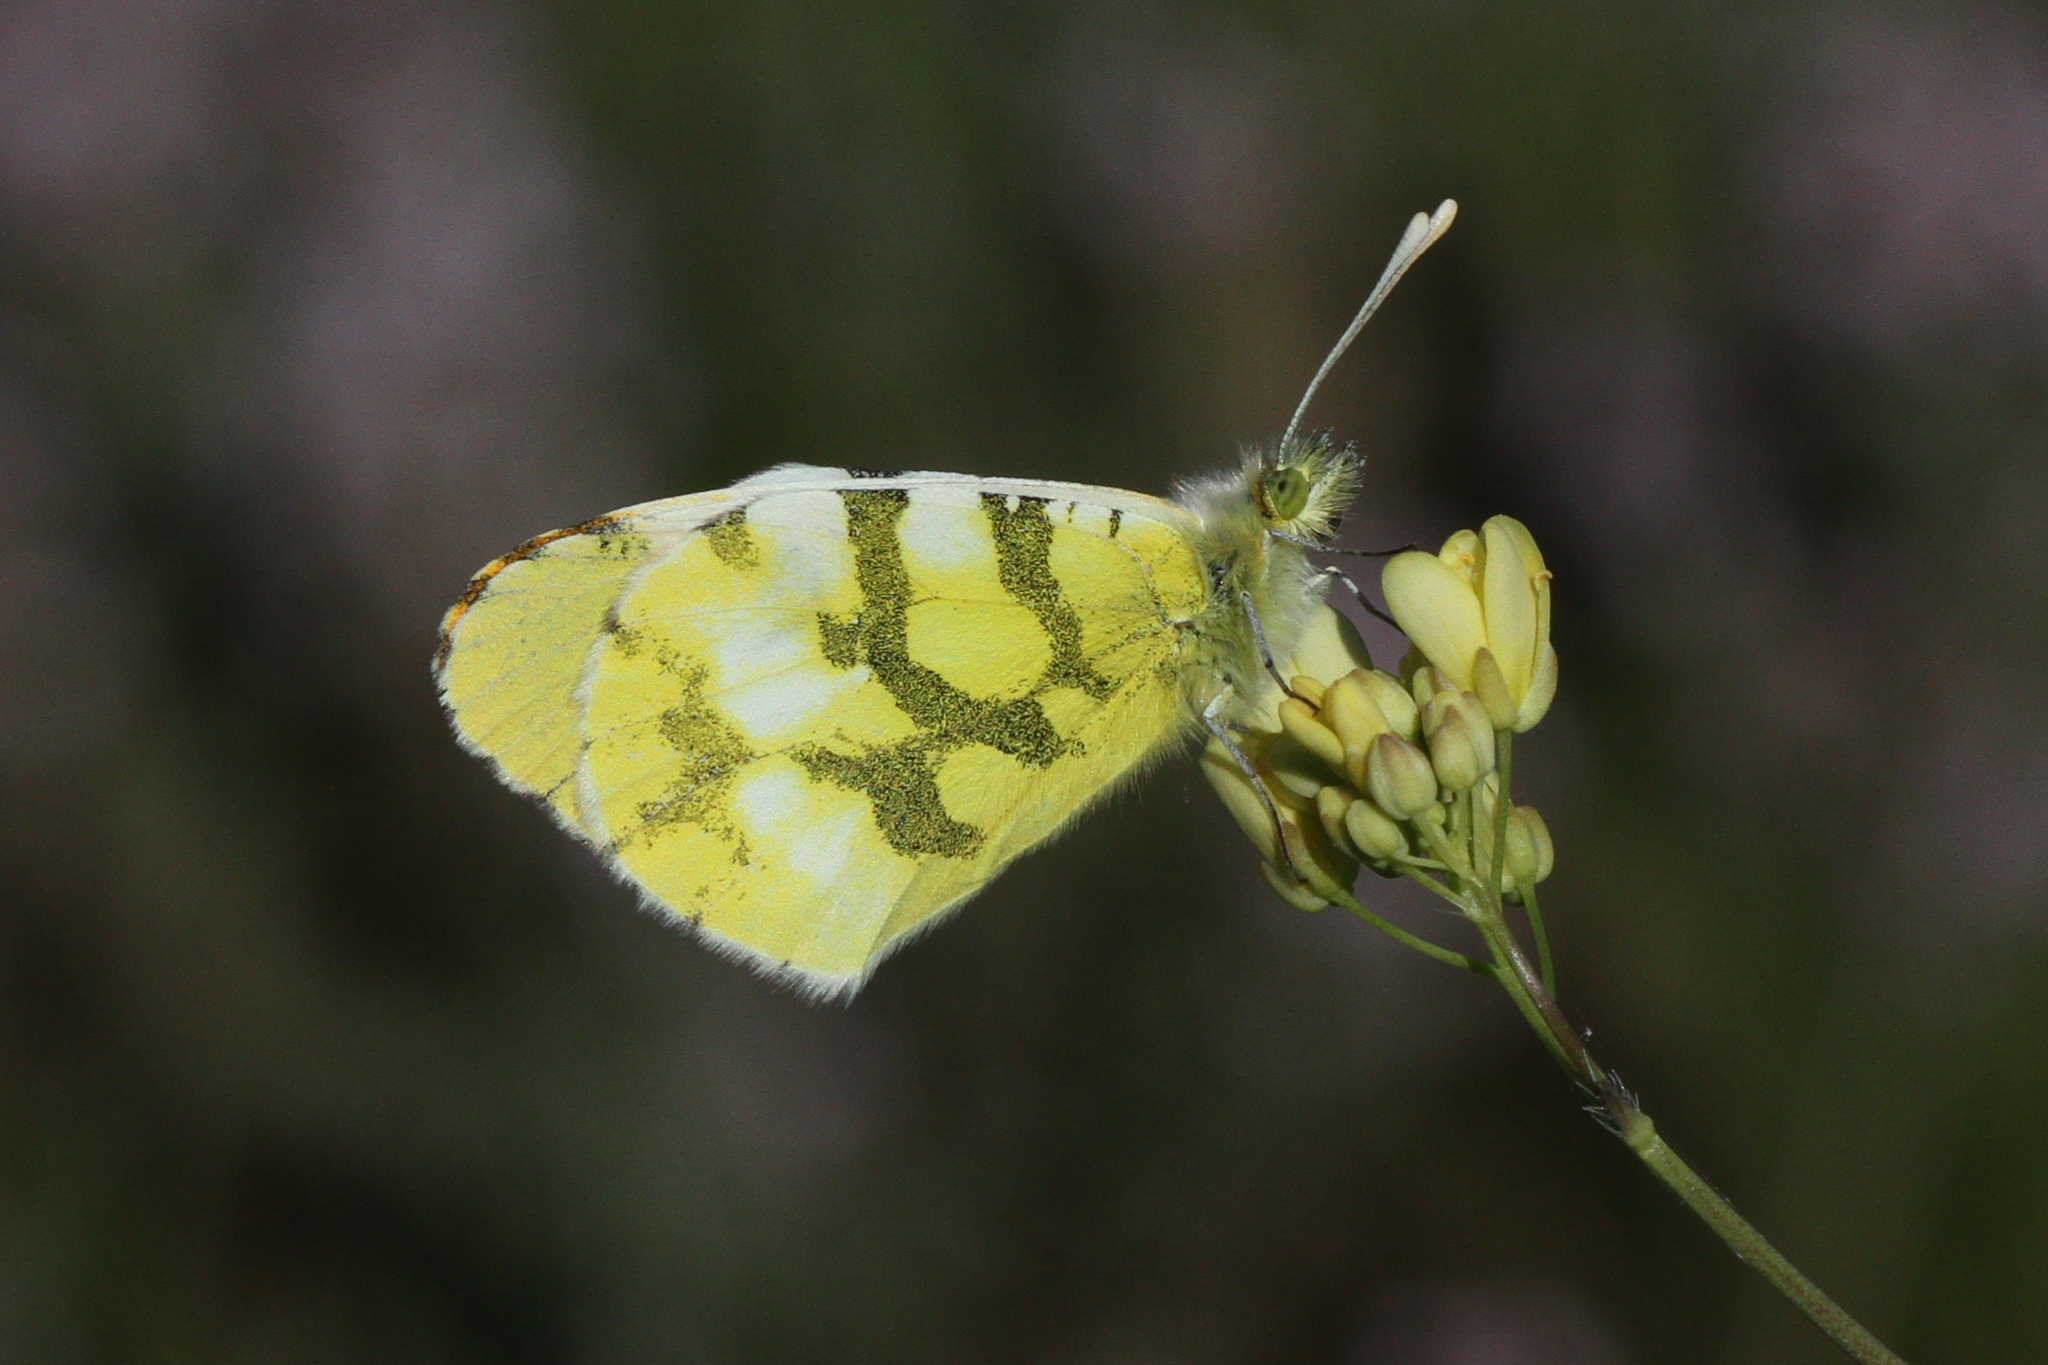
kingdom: Animalia
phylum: Arthropoda
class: Insecta
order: Lepidoptera
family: Pieridae
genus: Anthocharis
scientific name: Anthocharis euphenoides
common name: Provence orange-tip
